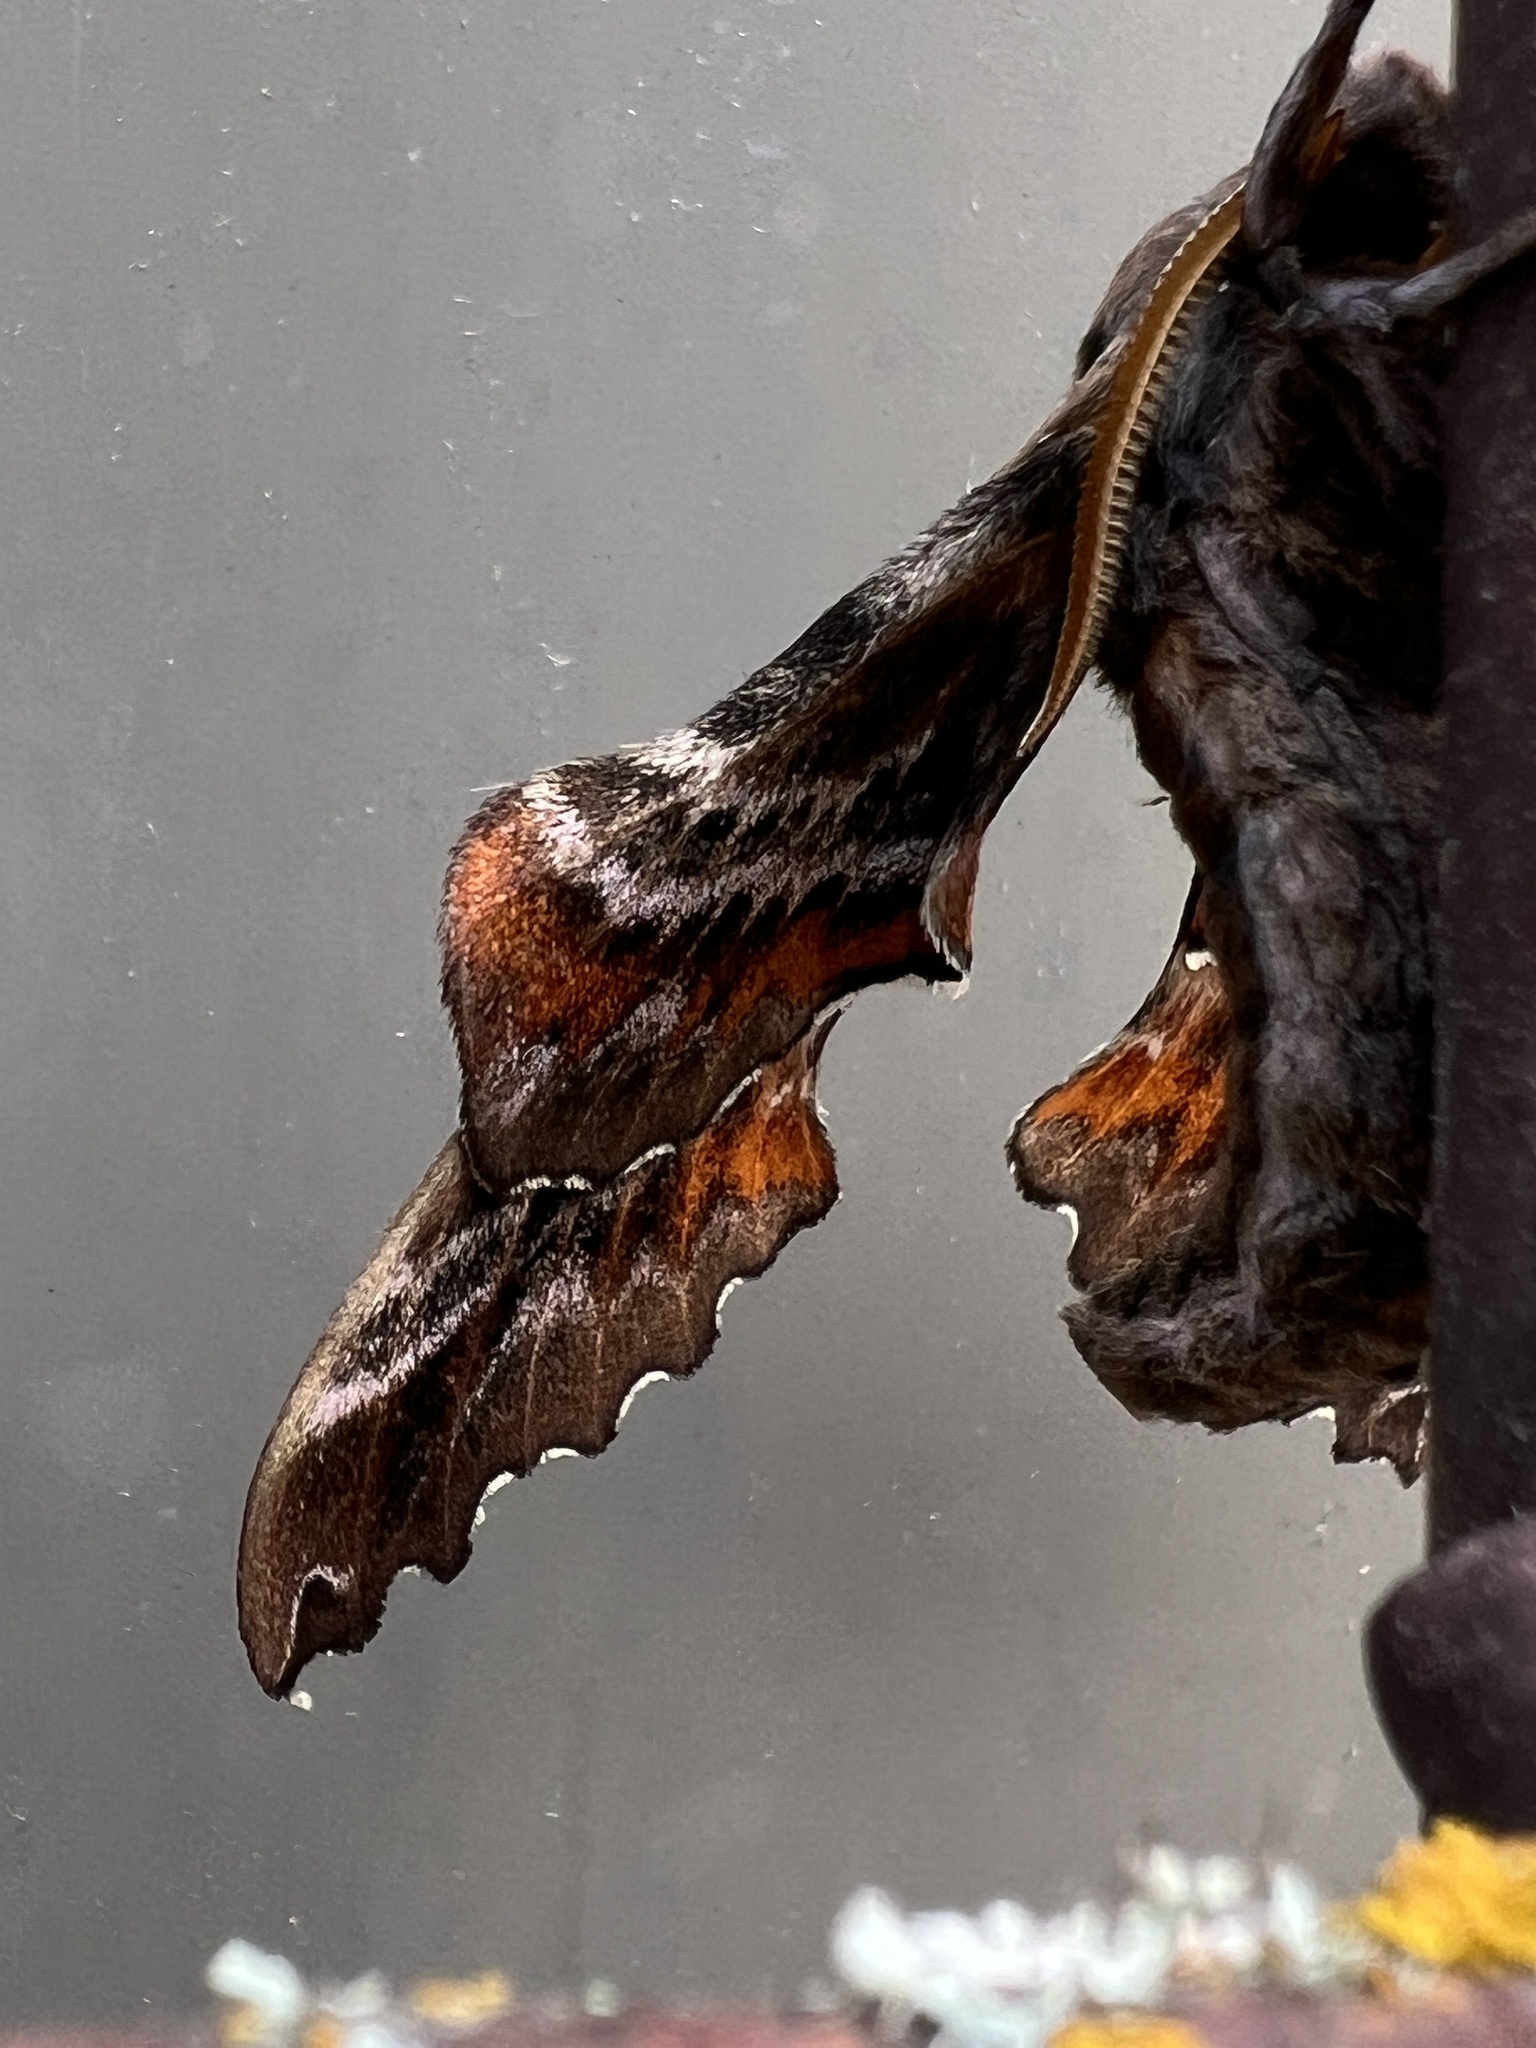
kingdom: Animalia
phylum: Arthropoda
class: Insecta
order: Lepidoptera
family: Sphingidae
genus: Paonias
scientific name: Paonias excaecata
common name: Blind-eyed sphinx
